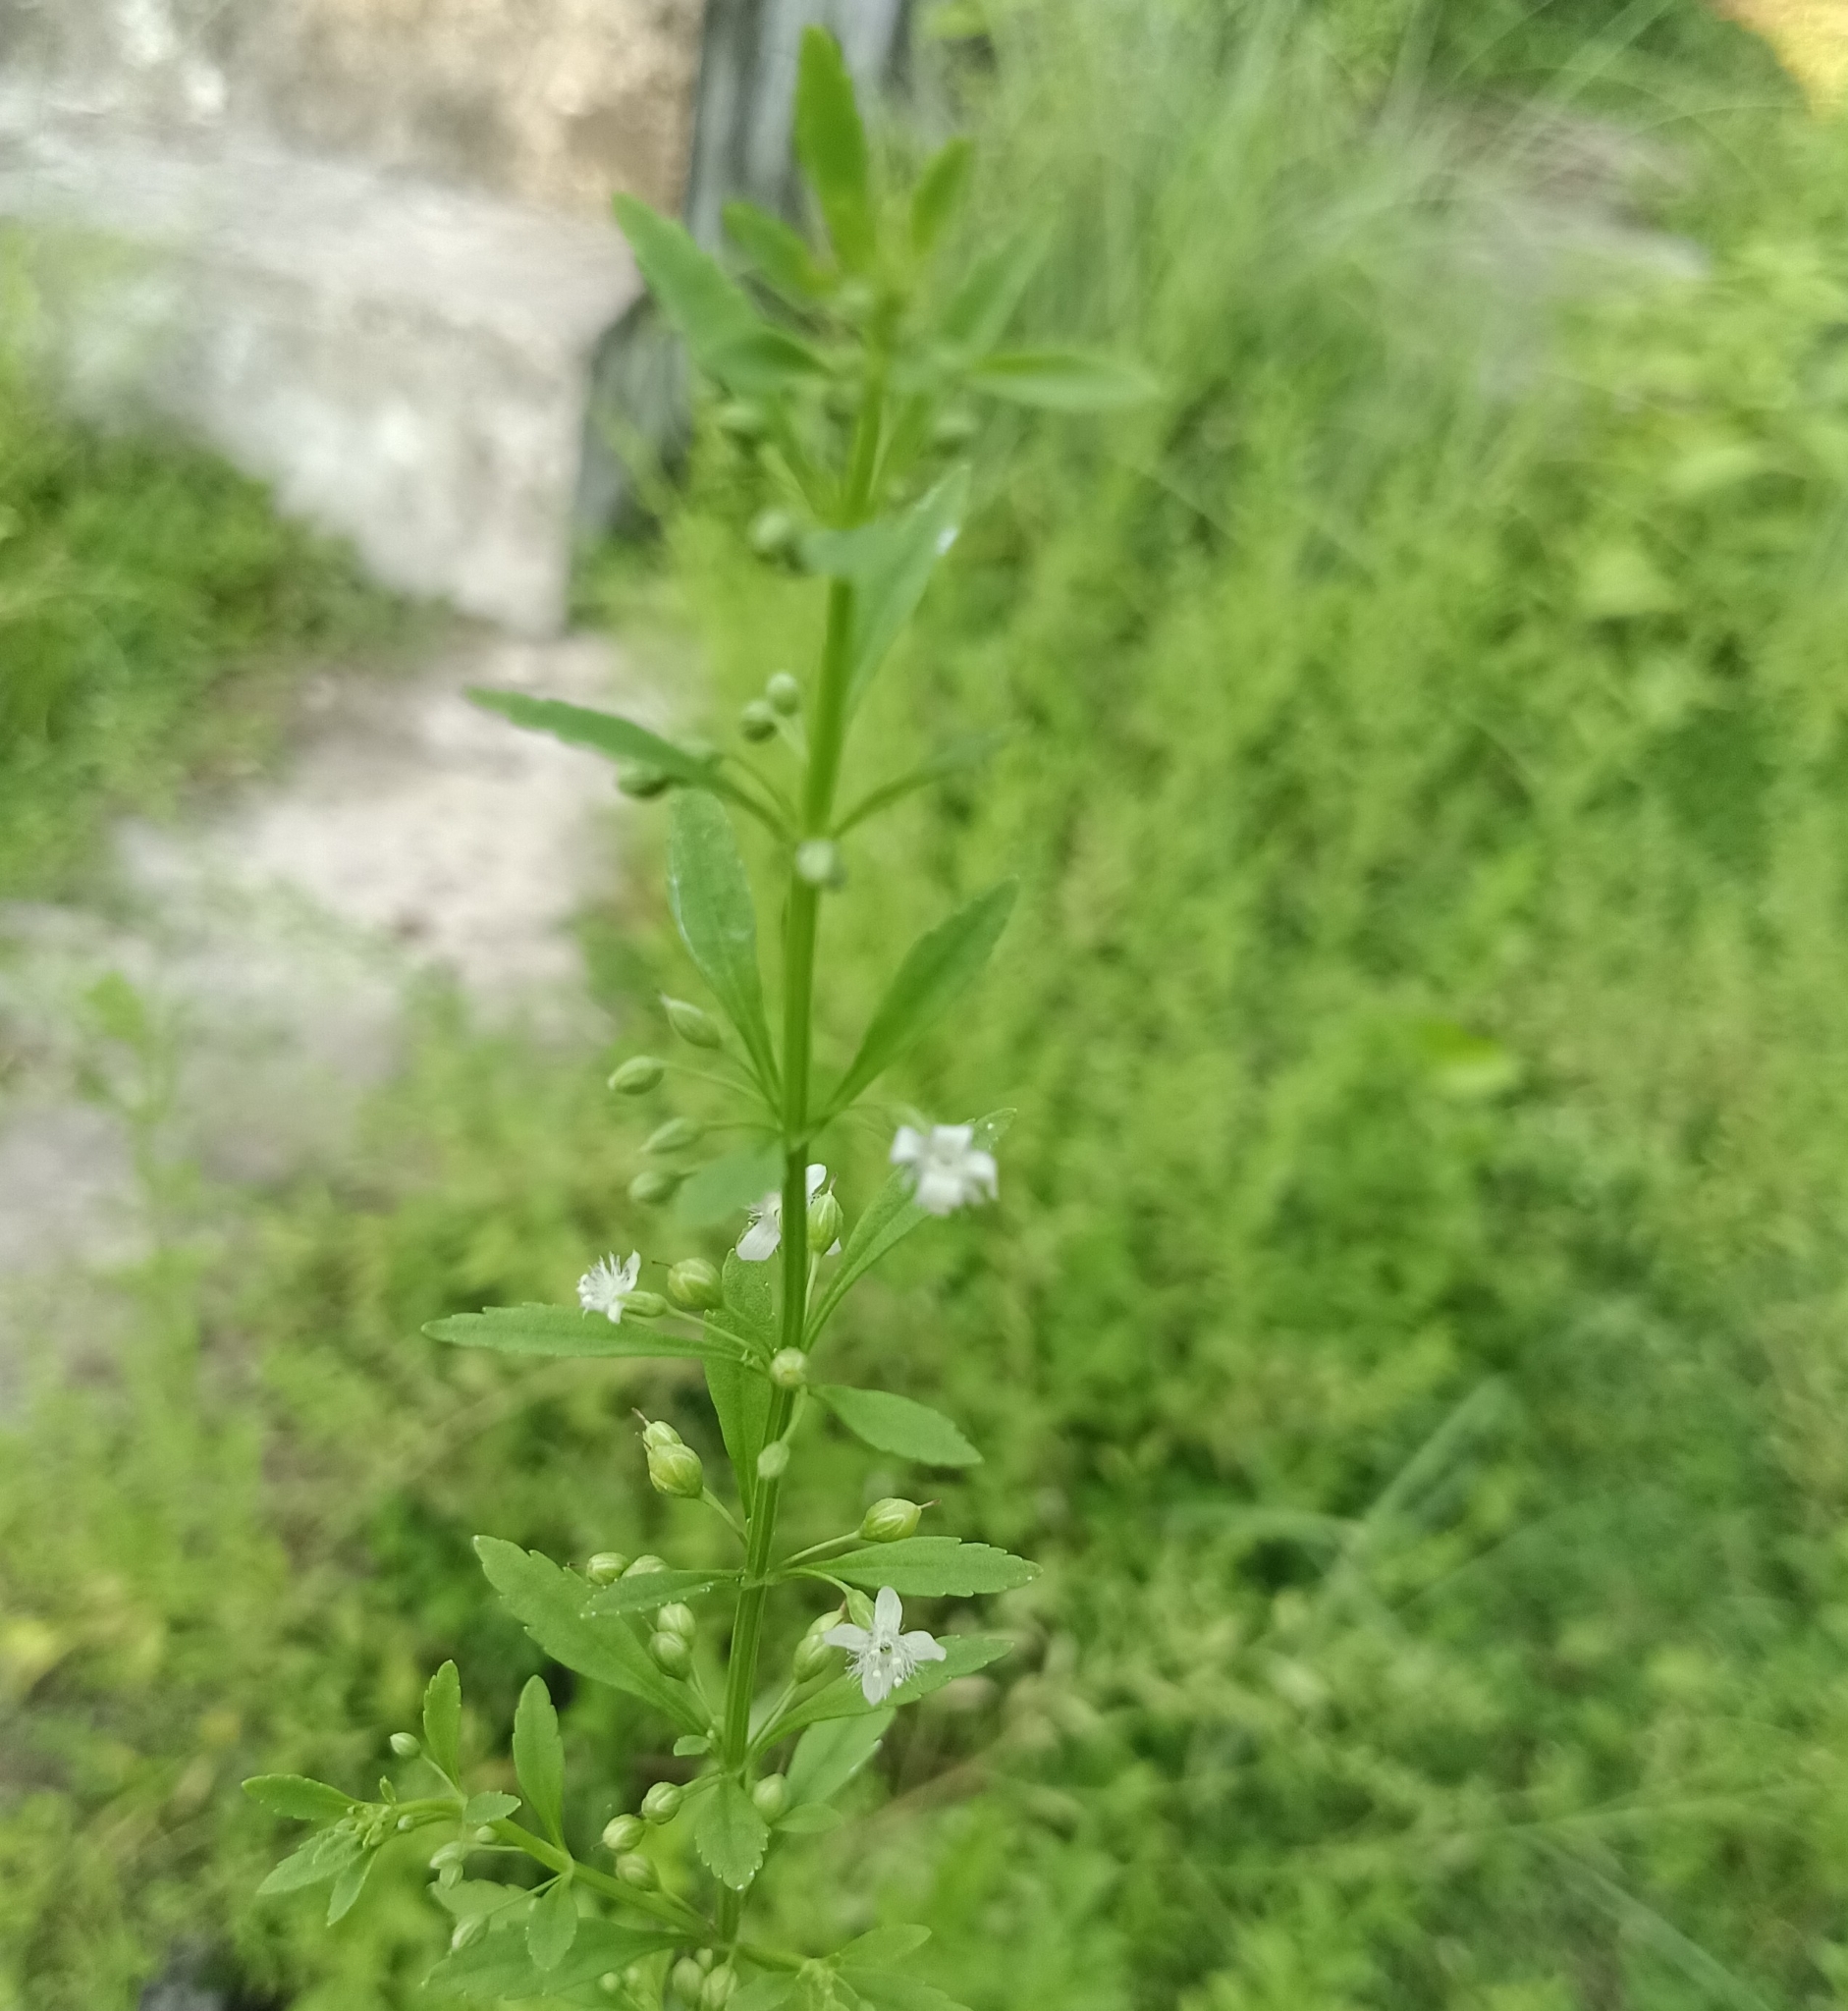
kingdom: Plantae
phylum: Tracheophyta
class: Magnoliopsida
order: Lamiales
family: Plantaginaceae
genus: Scoparia
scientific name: Scoparia dulcis
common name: Scoparia-weed
